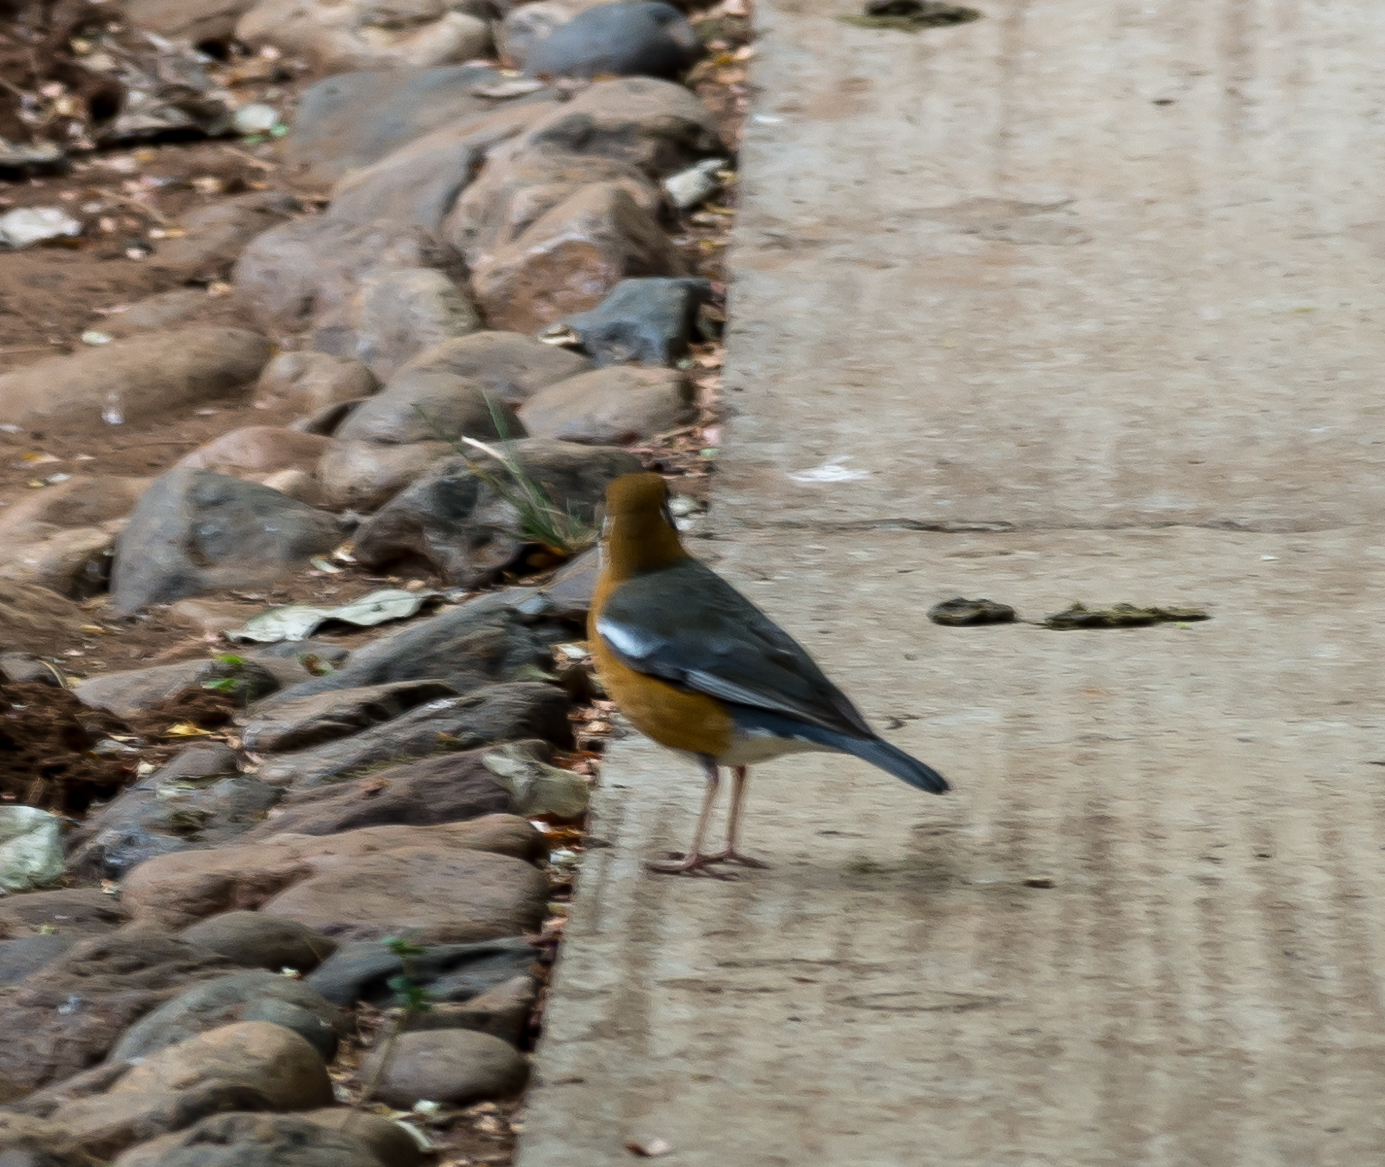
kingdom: Animalia
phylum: Chordata
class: Aves
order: Passeriformes
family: Turdidae
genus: Geokichla
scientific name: Geokichla citrina
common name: Orange-headed thrush
